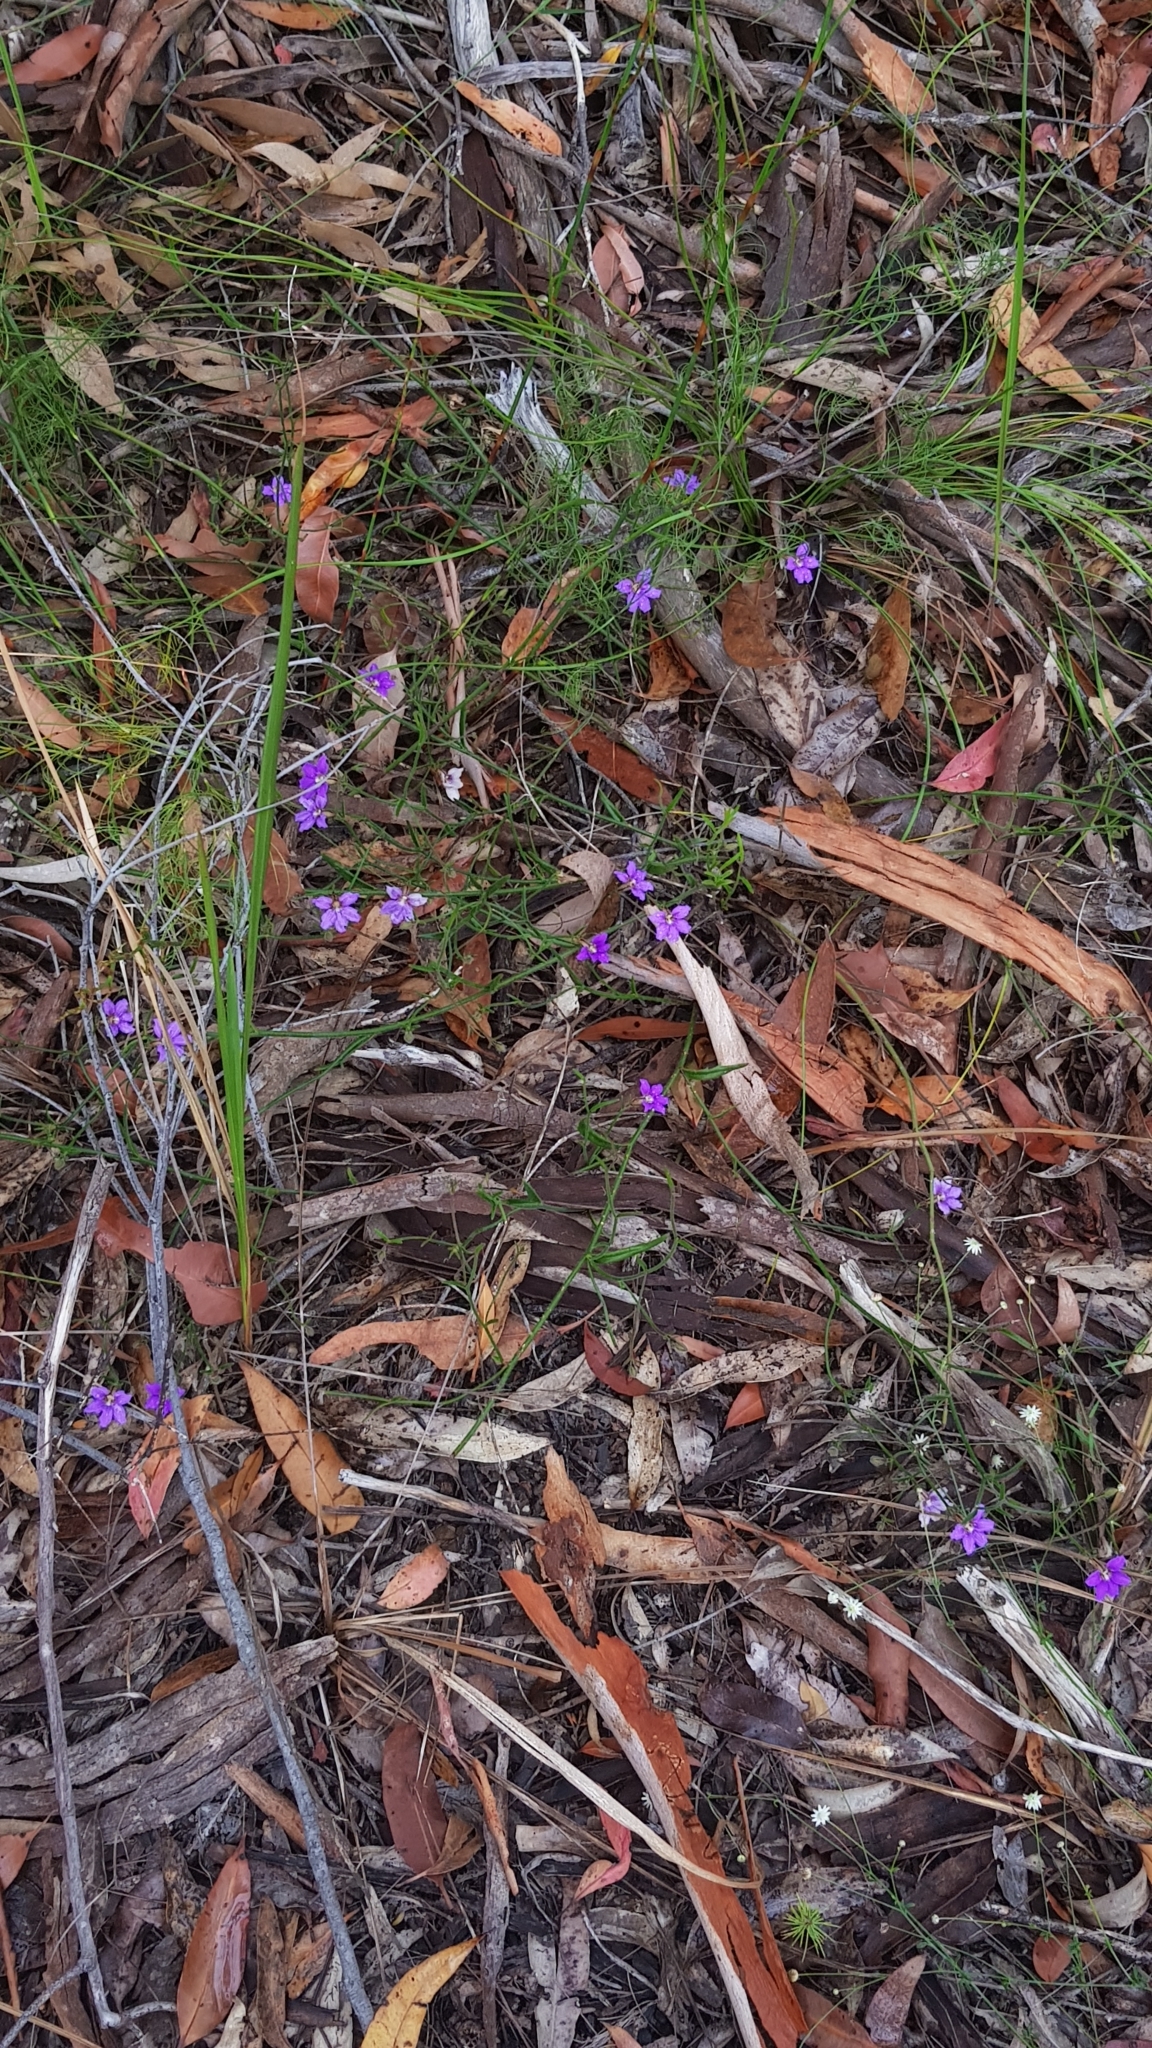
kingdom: Plantae
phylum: Tracheophyta
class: Magnoliopsida
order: Asterales
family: Goodeniaceae
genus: Scaevola
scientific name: Scaevola ramosissima
